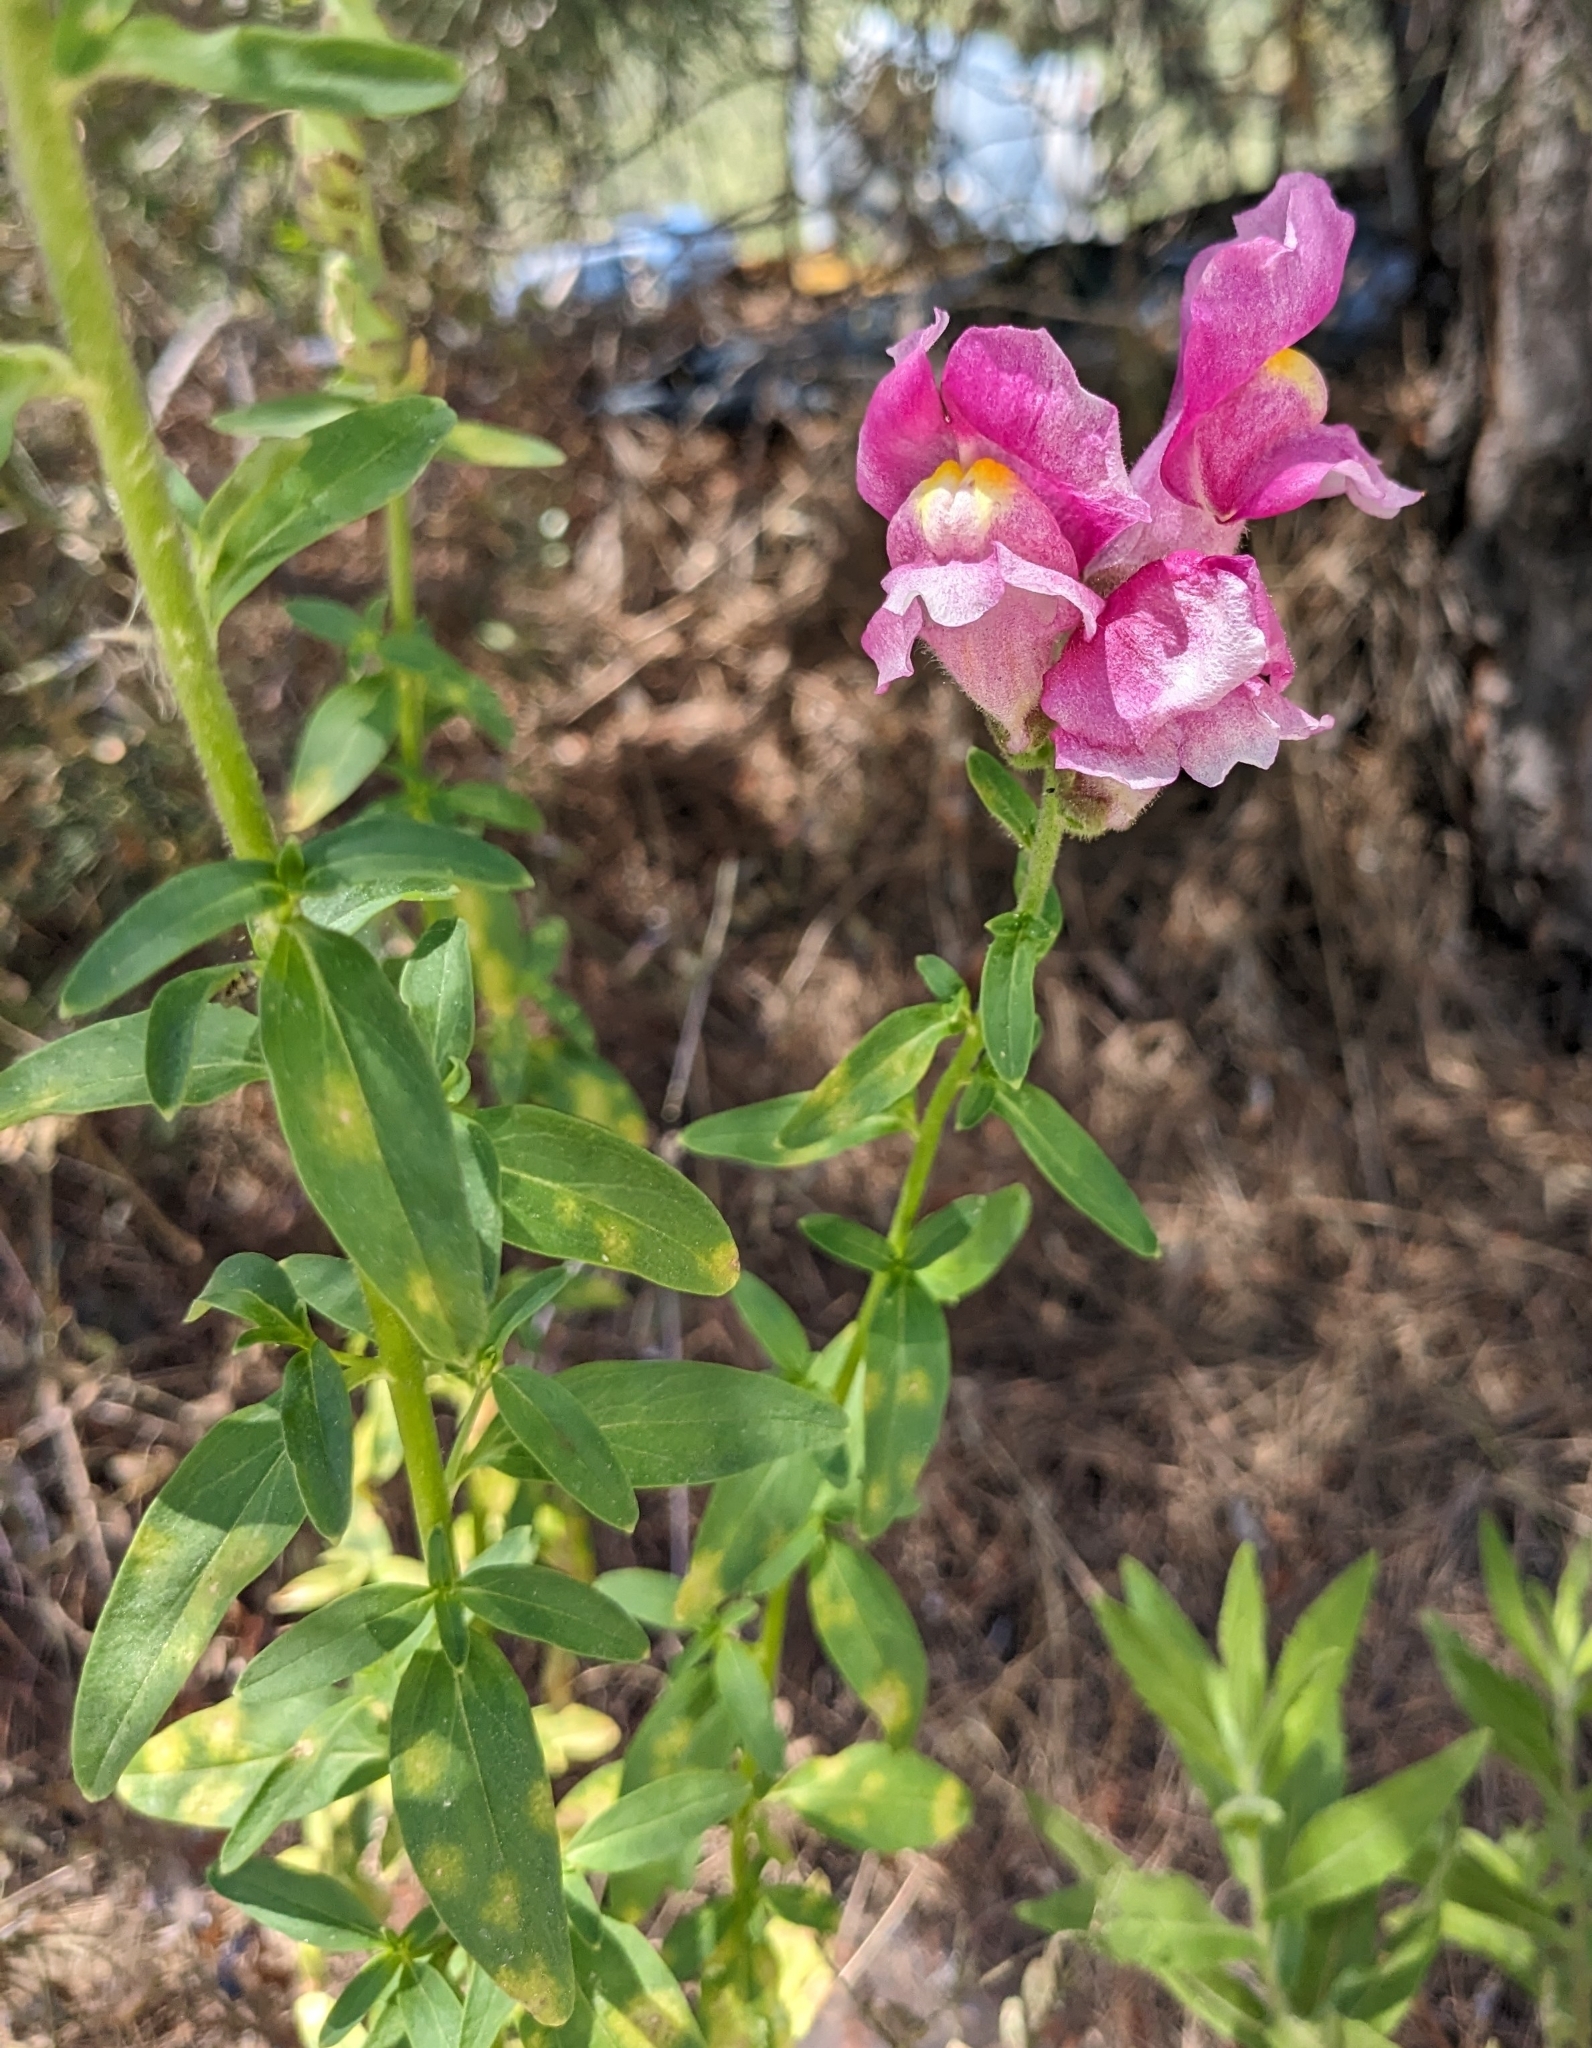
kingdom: Plantae
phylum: Tracheophyta
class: Magnoliopsida
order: Lamiales
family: Plantaginaceae
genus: Antirrhinum
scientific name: Antirrhinum majus
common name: Snapdragon
